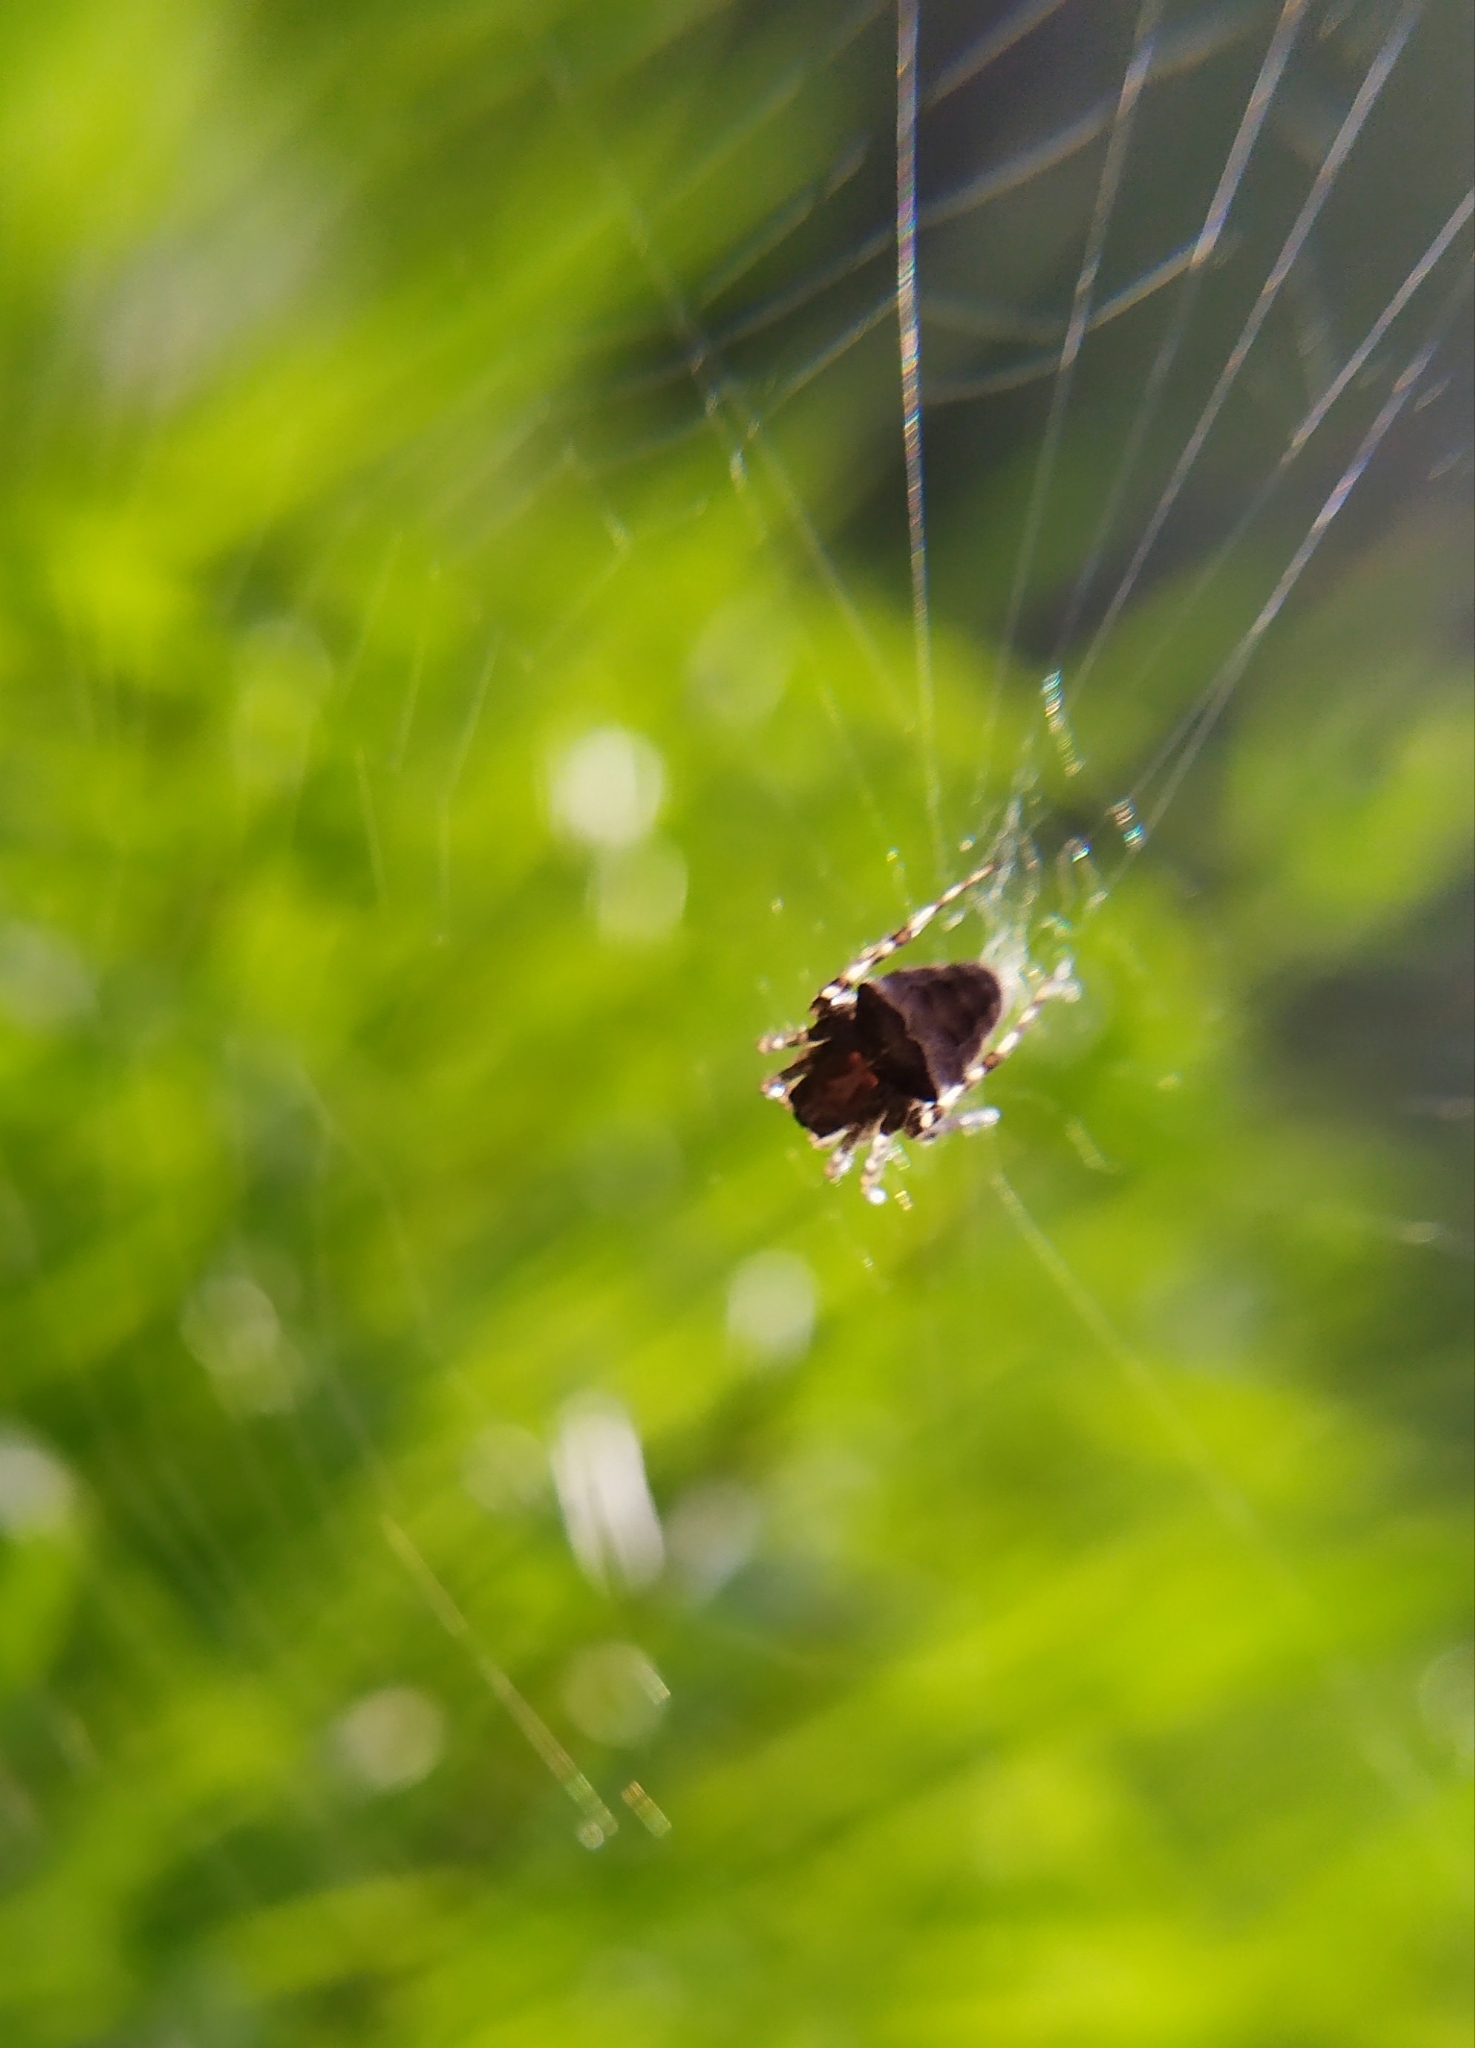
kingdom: Animalia
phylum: Arthropoda
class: Arachnida
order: Araneae
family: Araneidae
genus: Gibbaranea
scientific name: Gibbaranea bituberculata
